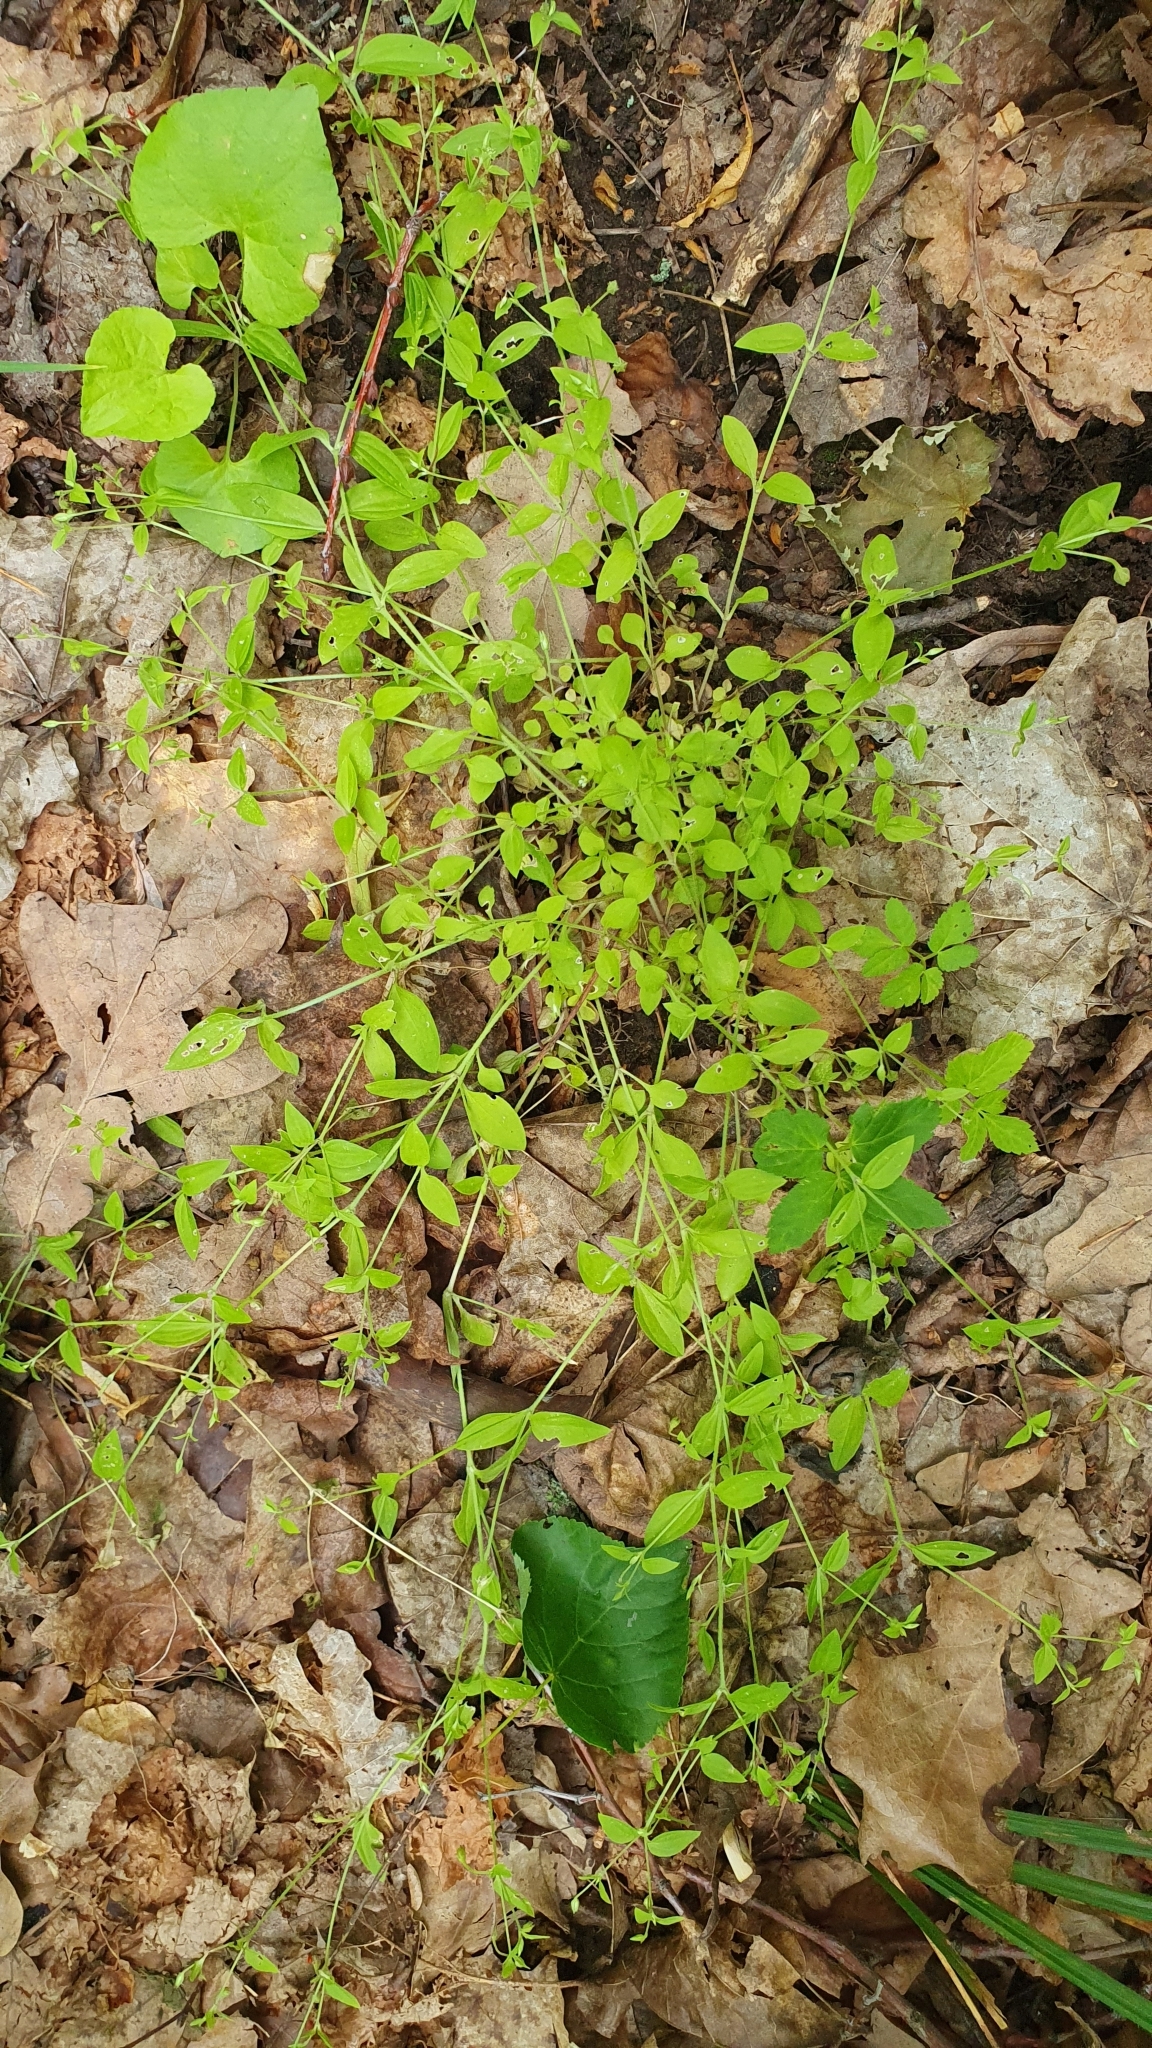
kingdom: Plantae
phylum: Tracheophyta
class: Magnoliopsida
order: Caryophyllales
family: Caryophyllaceae
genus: Moehringia
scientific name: Moehringia trinervia
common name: Three-nerved sandwort
